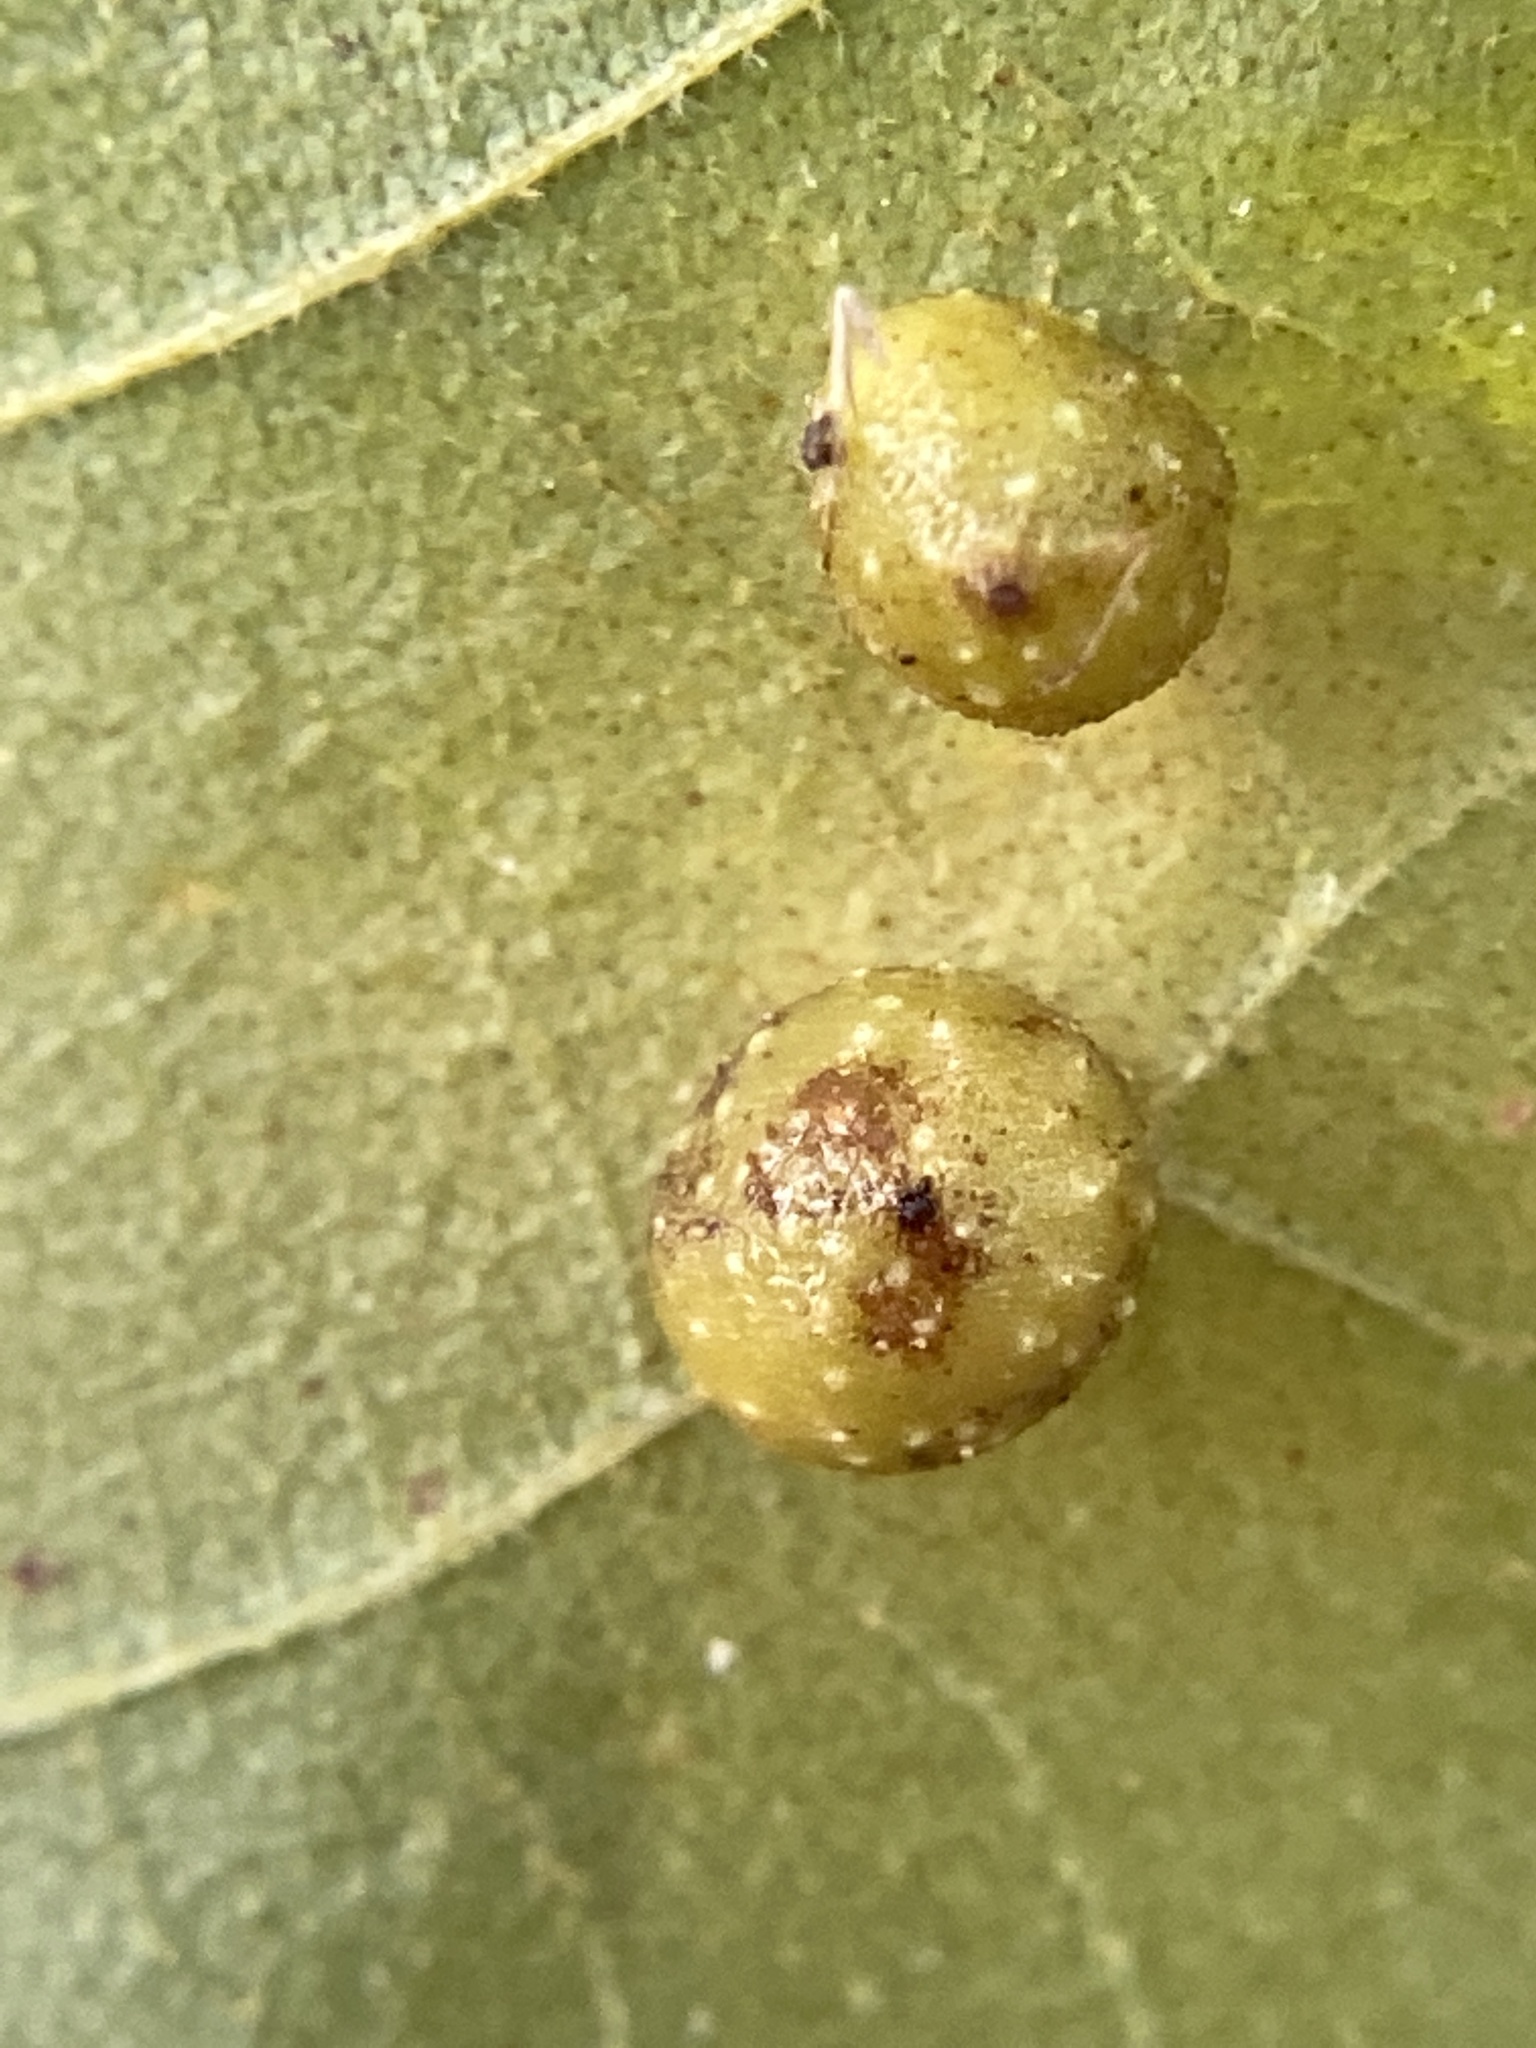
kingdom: Animalia
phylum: Arthropoda
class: Insecta
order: Diptera
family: Cecidomyiidae
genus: Caryomyia
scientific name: Caryomyia tuberculata
